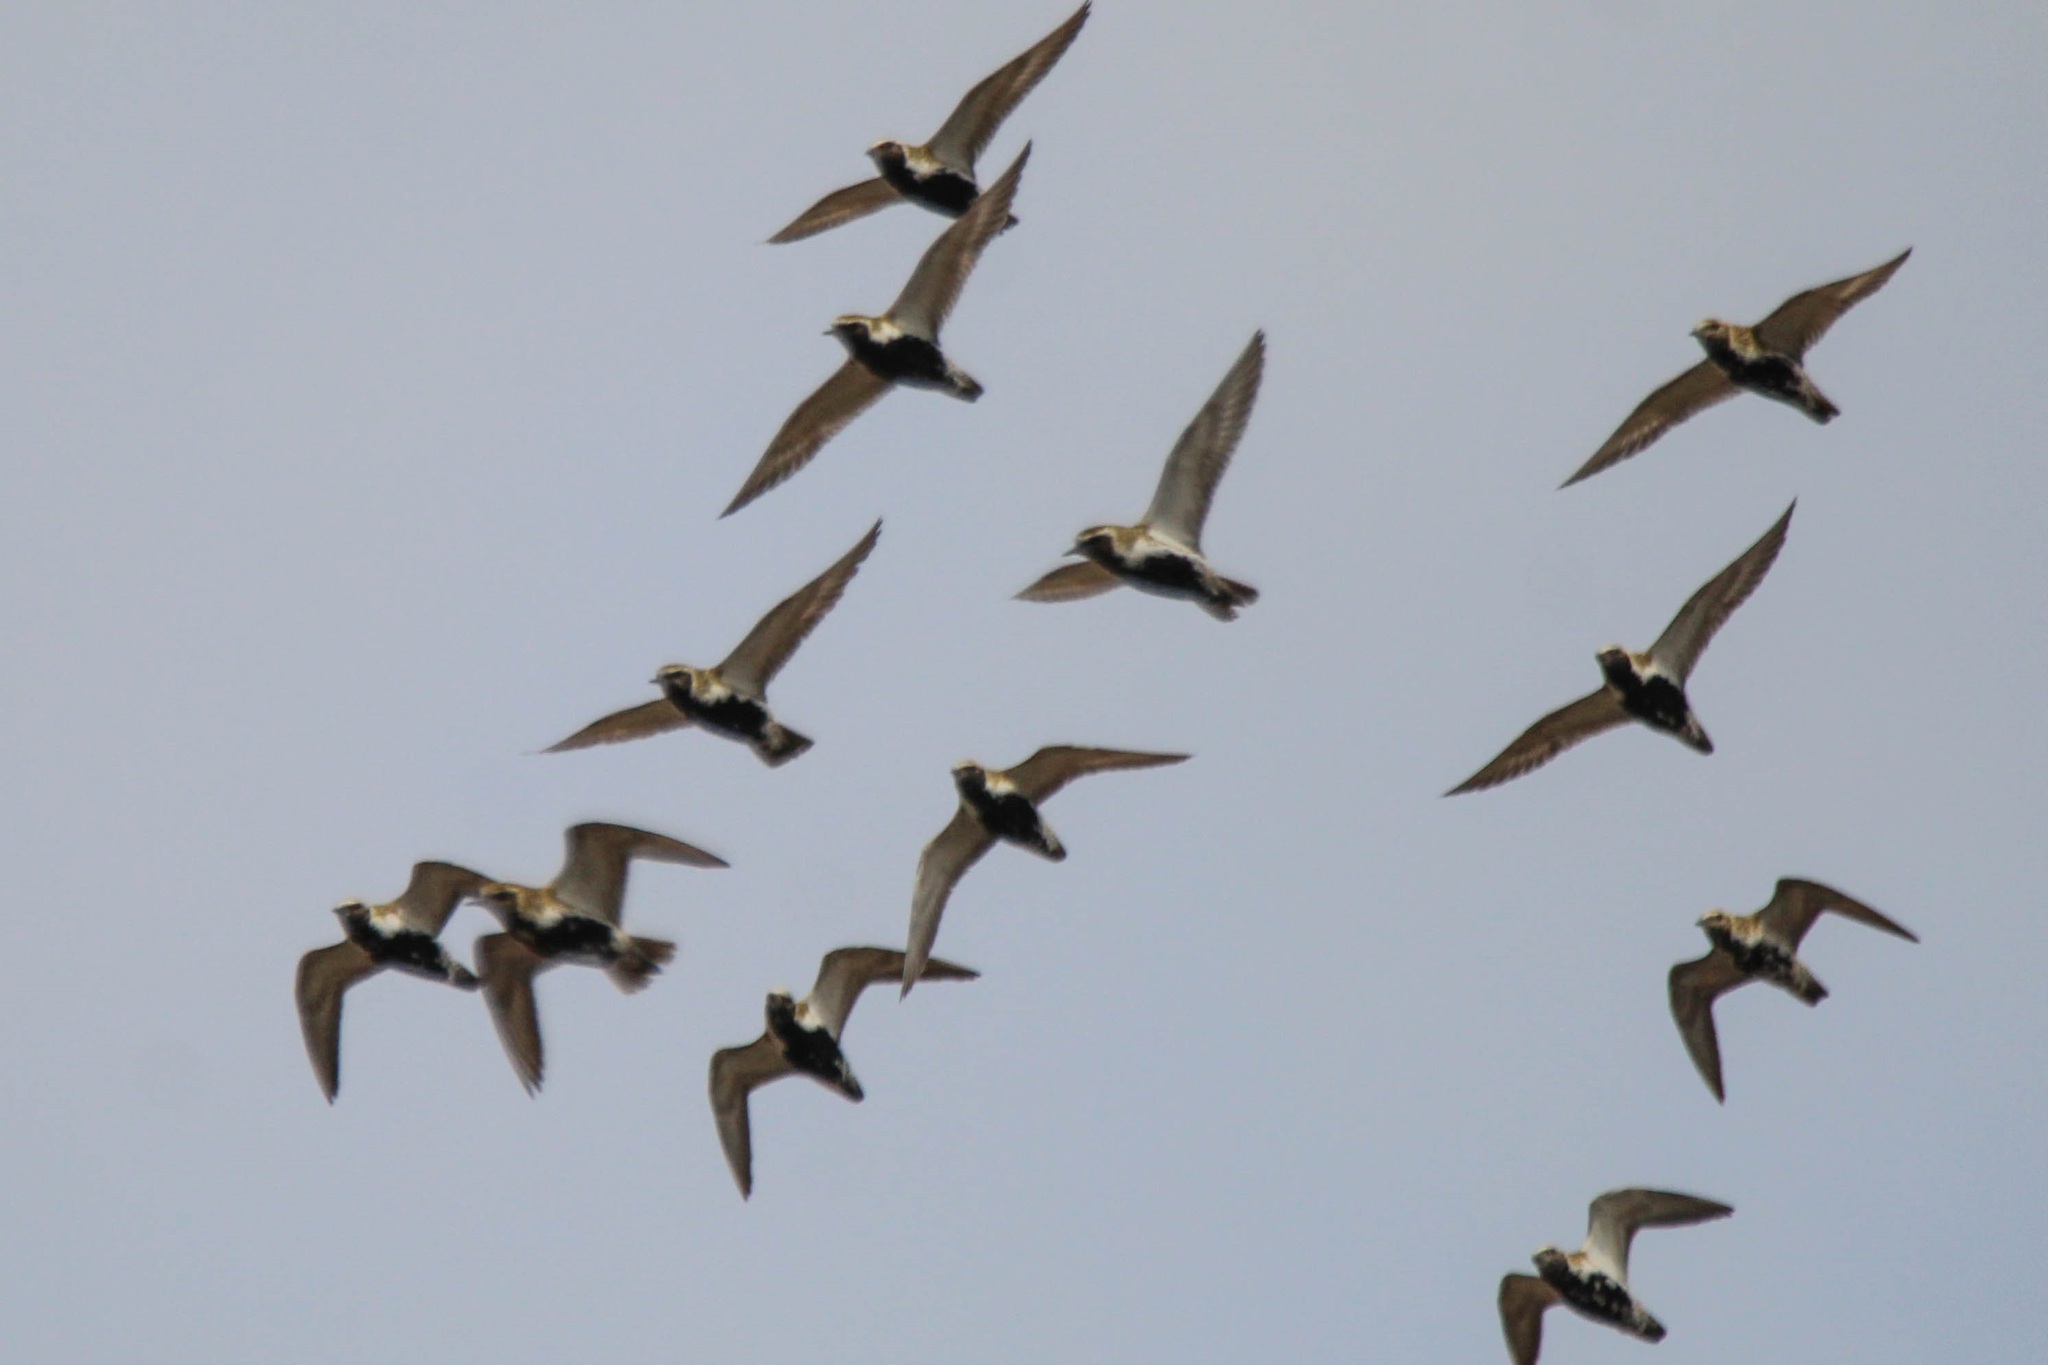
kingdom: Animalia
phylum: Chordata
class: Aves
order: Charadriiformes
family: Charadriidae
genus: Pluvialis
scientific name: Pluvialis apricaria
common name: European golden plover
